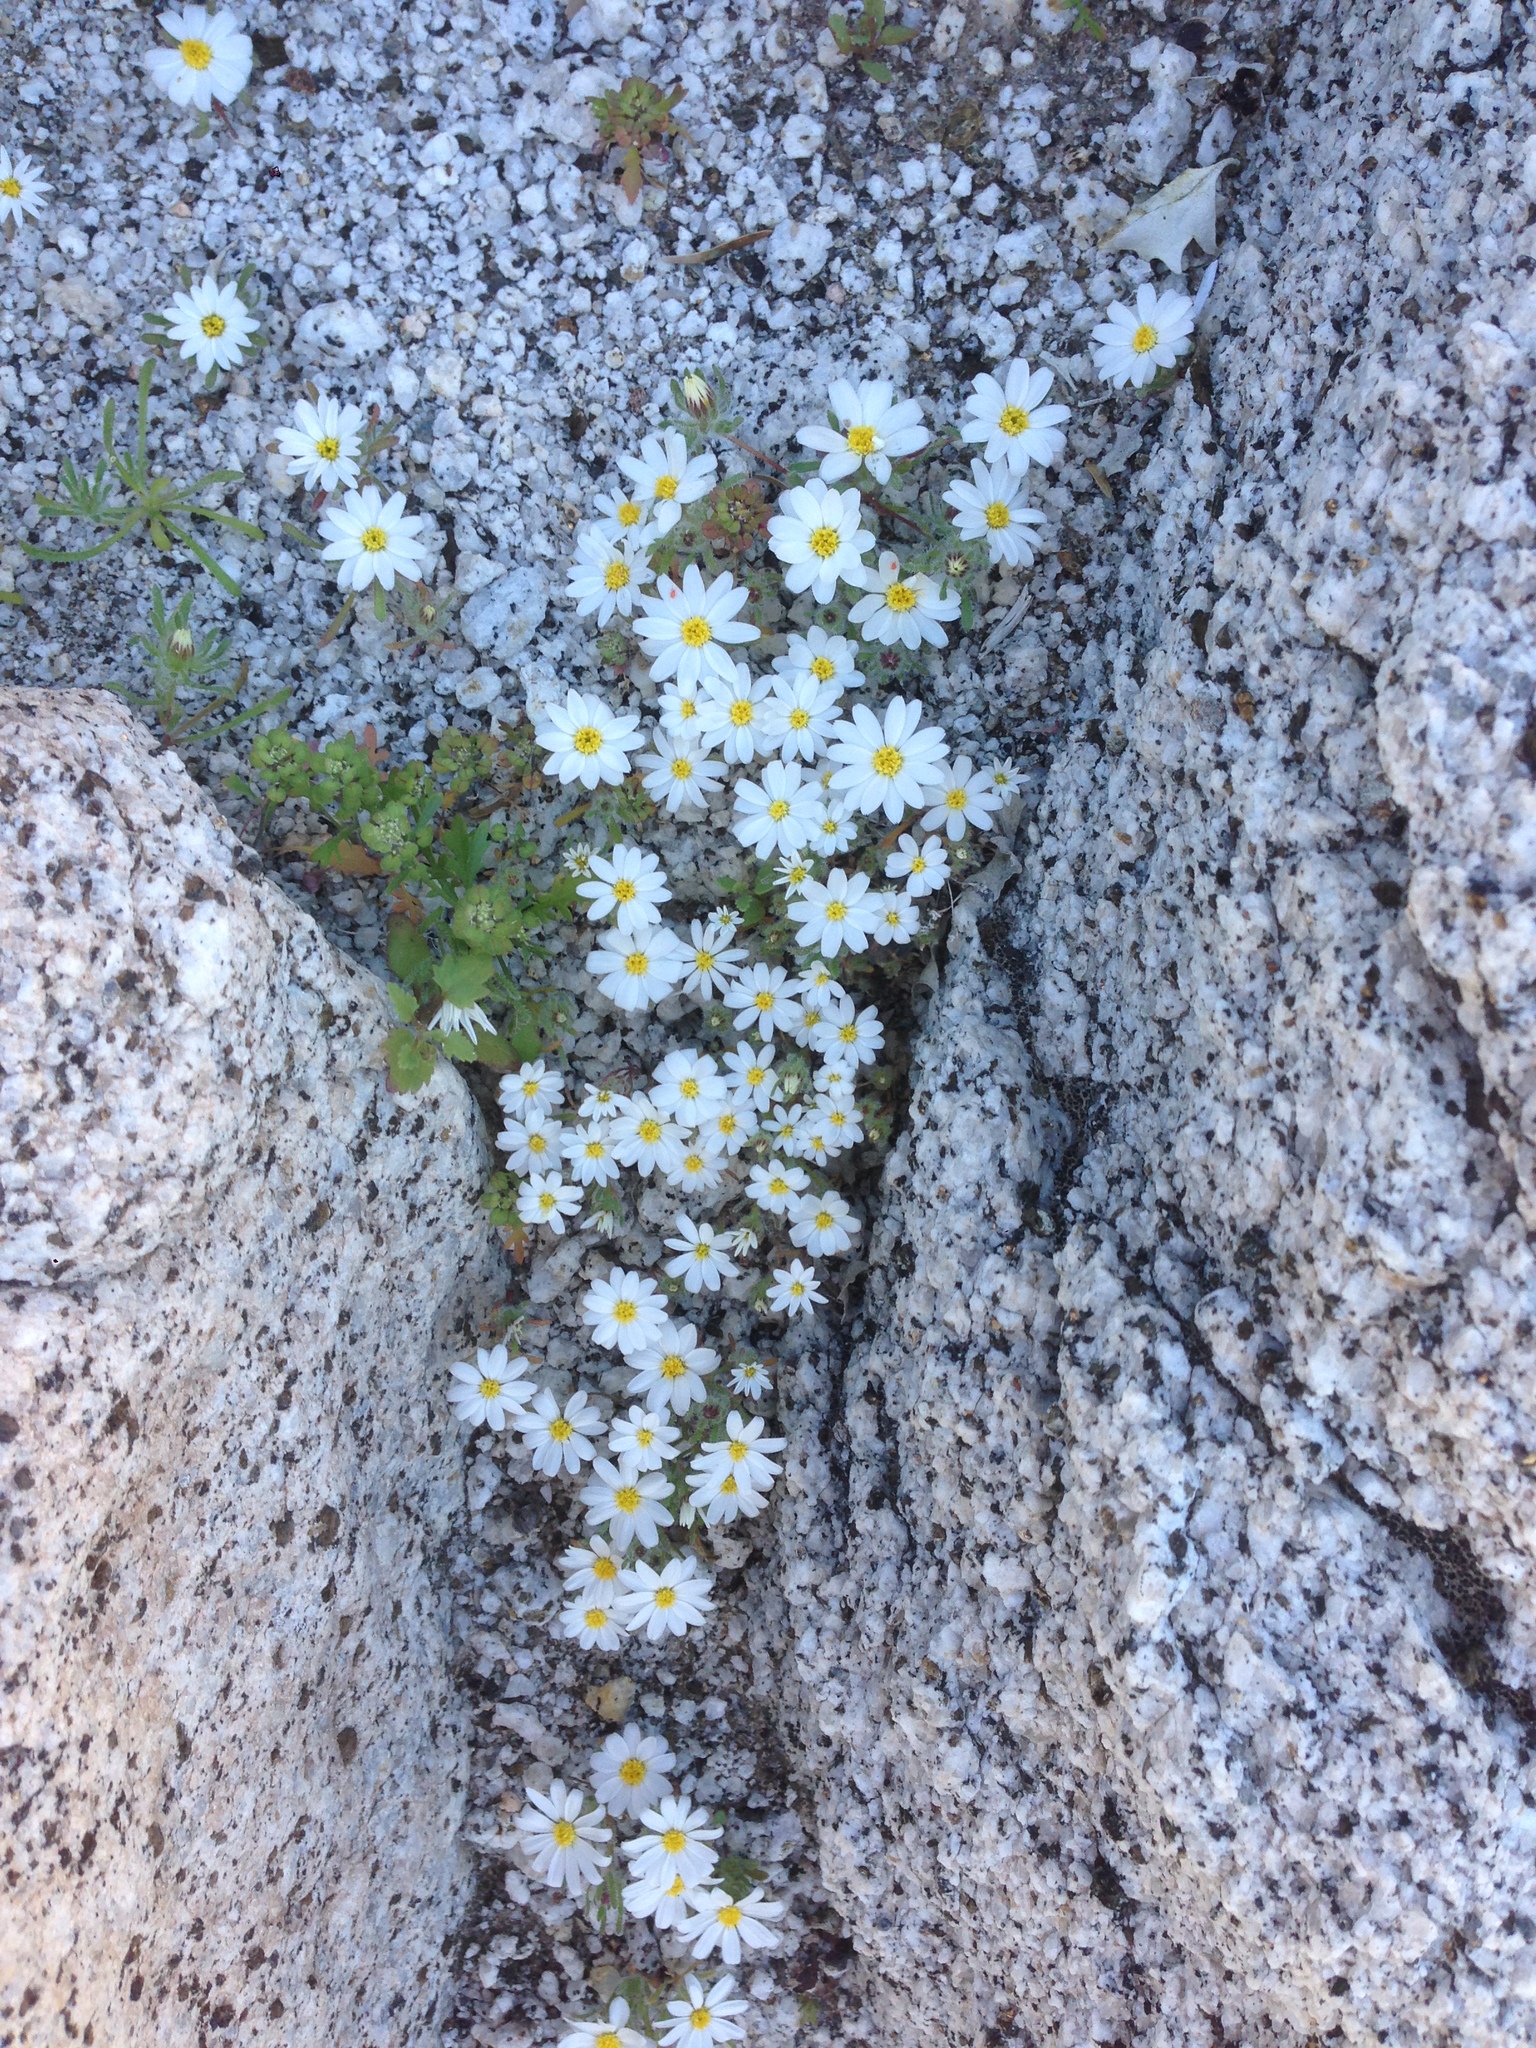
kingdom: Plantae
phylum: Tracheophyta
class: Magnoliopsida
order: Asterales
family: Asteraceae
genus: Monoptilon
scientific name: Monoptilon bellioides
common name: Bristly desertstar
